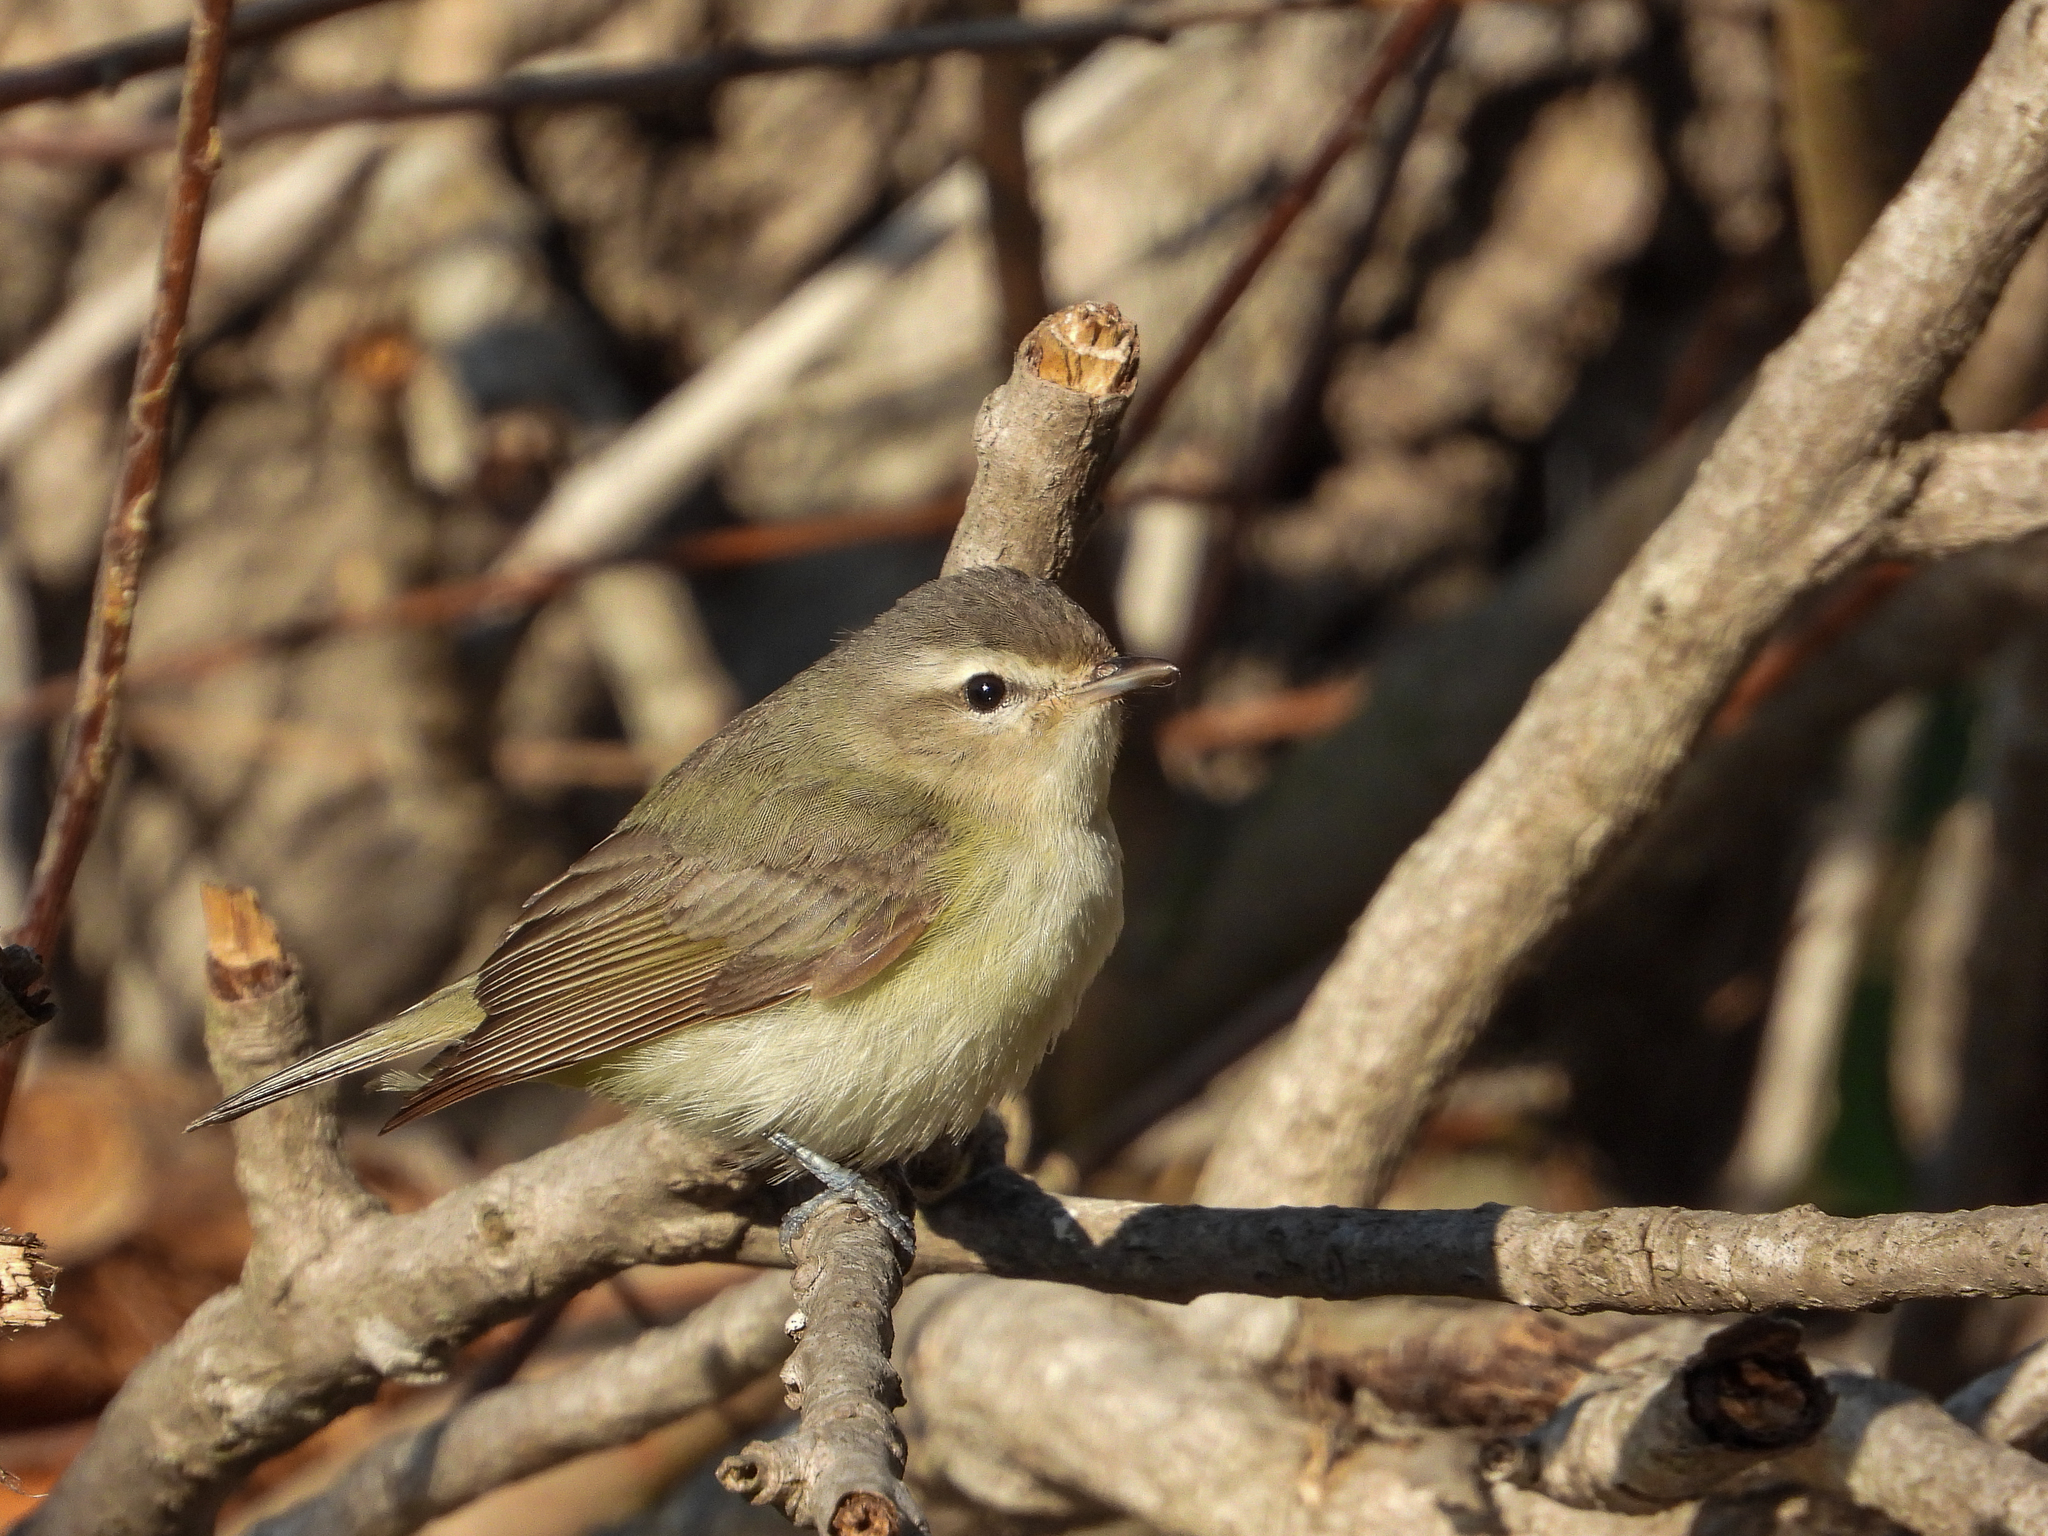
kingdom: Animalia
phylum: Chordata
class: Aves
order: Passeriformes
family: Vireonidae
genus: Vireo
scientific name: Vireo gilvus
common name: Warbling vireo
